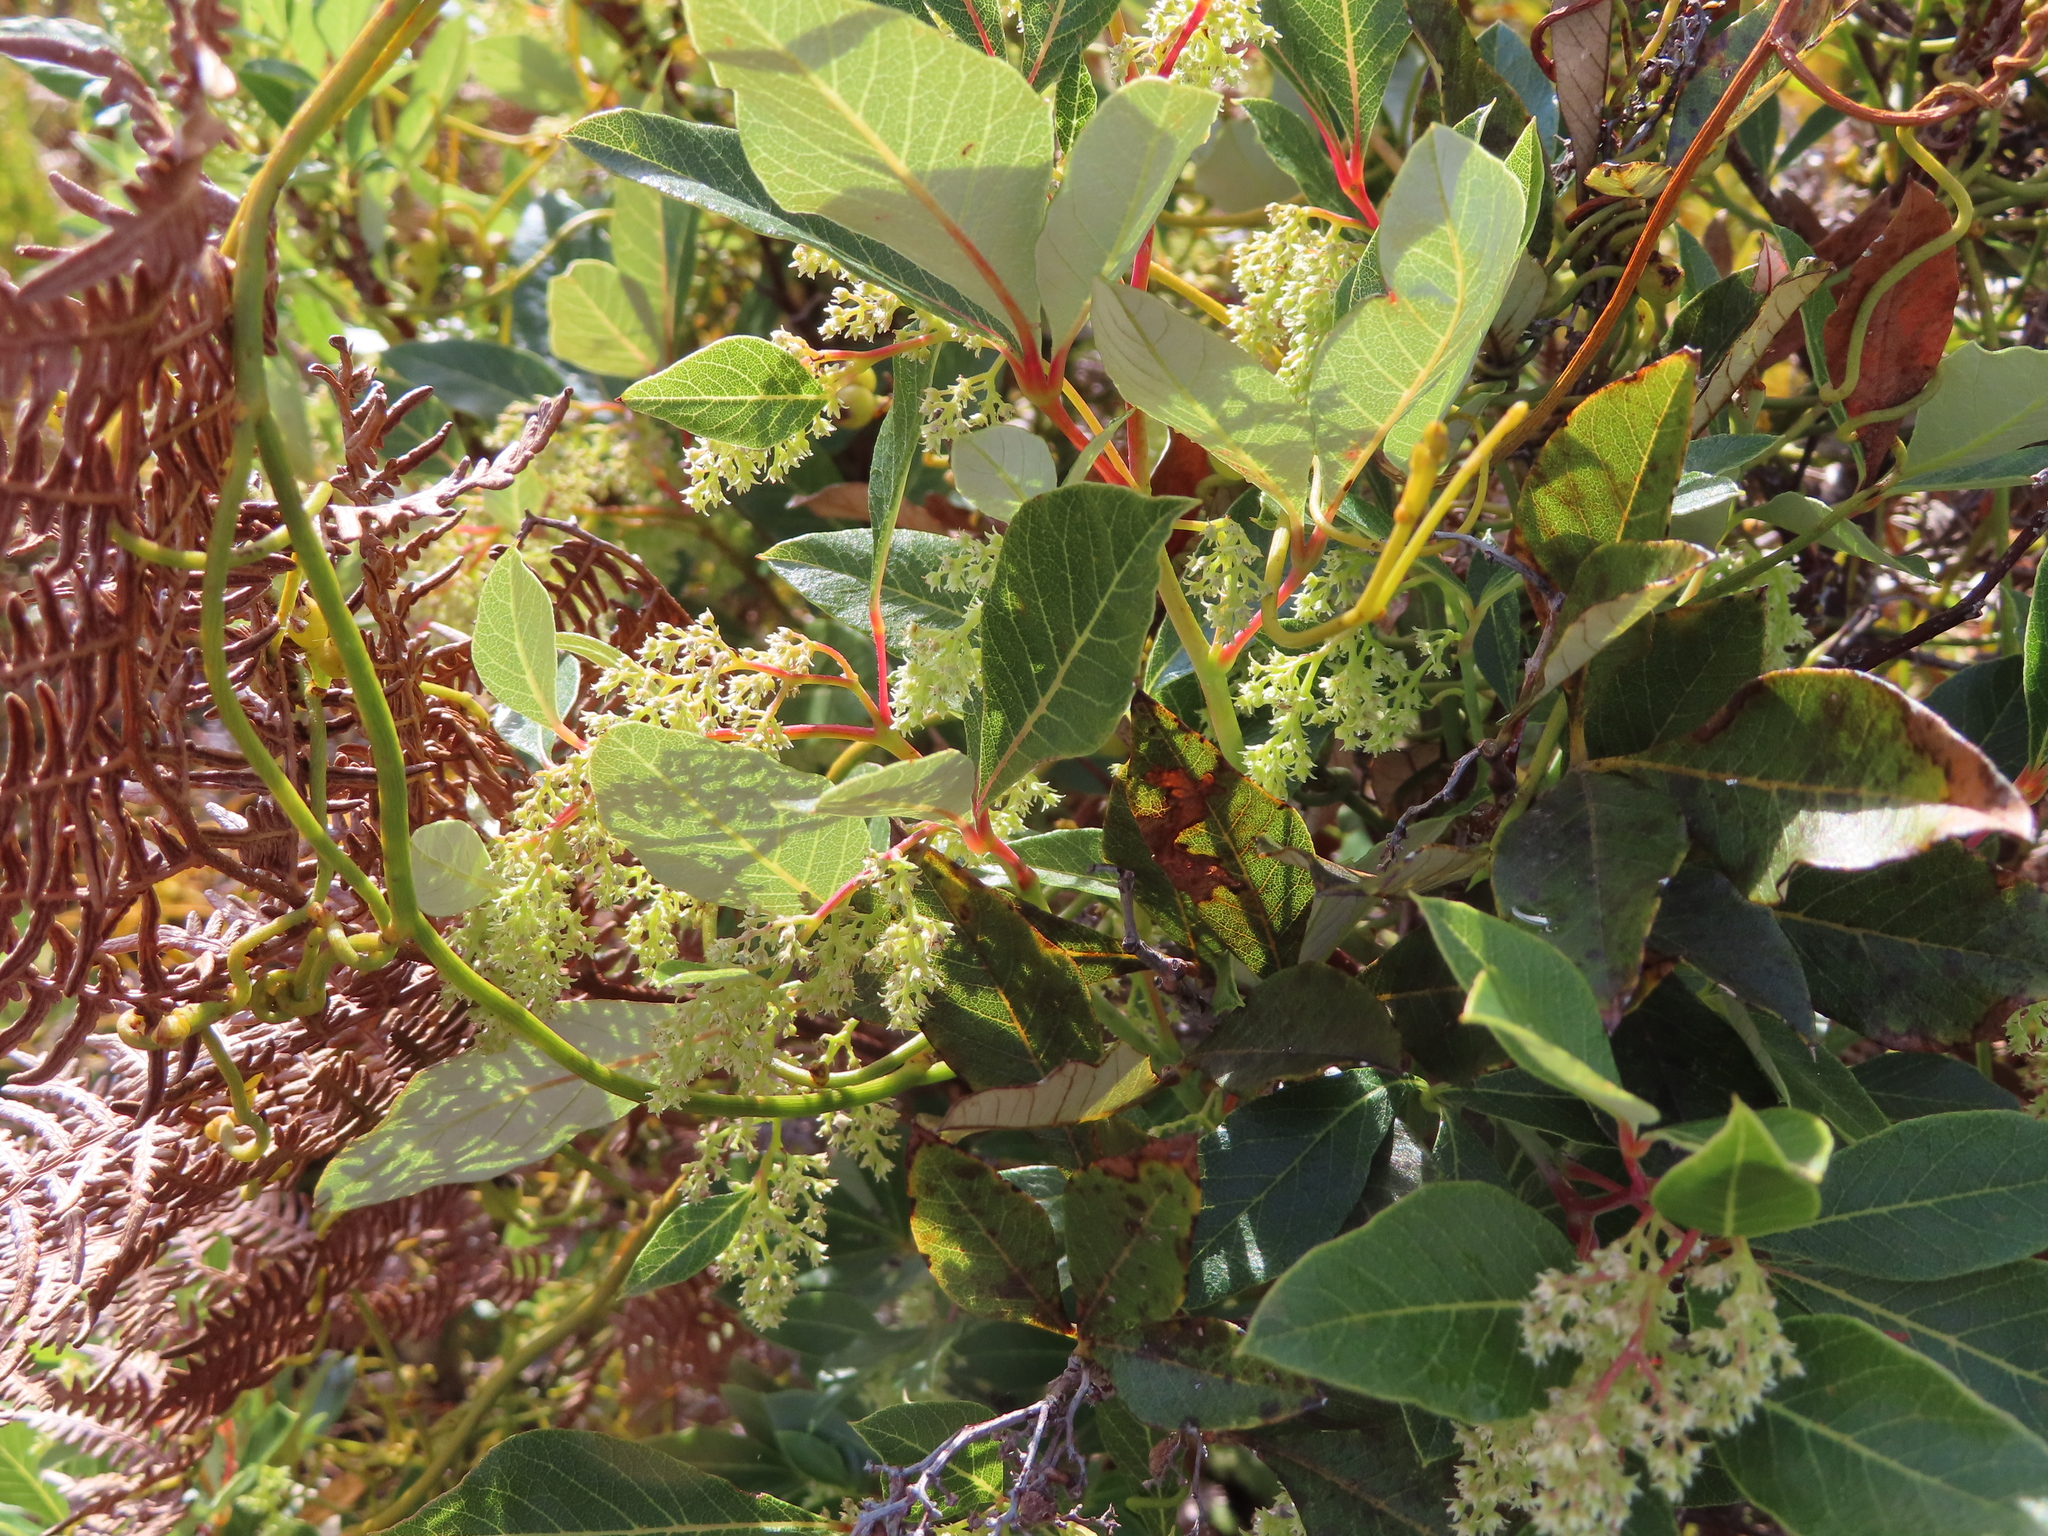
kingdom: Plantae
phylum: Tracheophyta
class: Magnoliopsida
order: Sapindales
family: Anacardiaceae
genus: Searsia
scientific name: Searsia tomentosa
